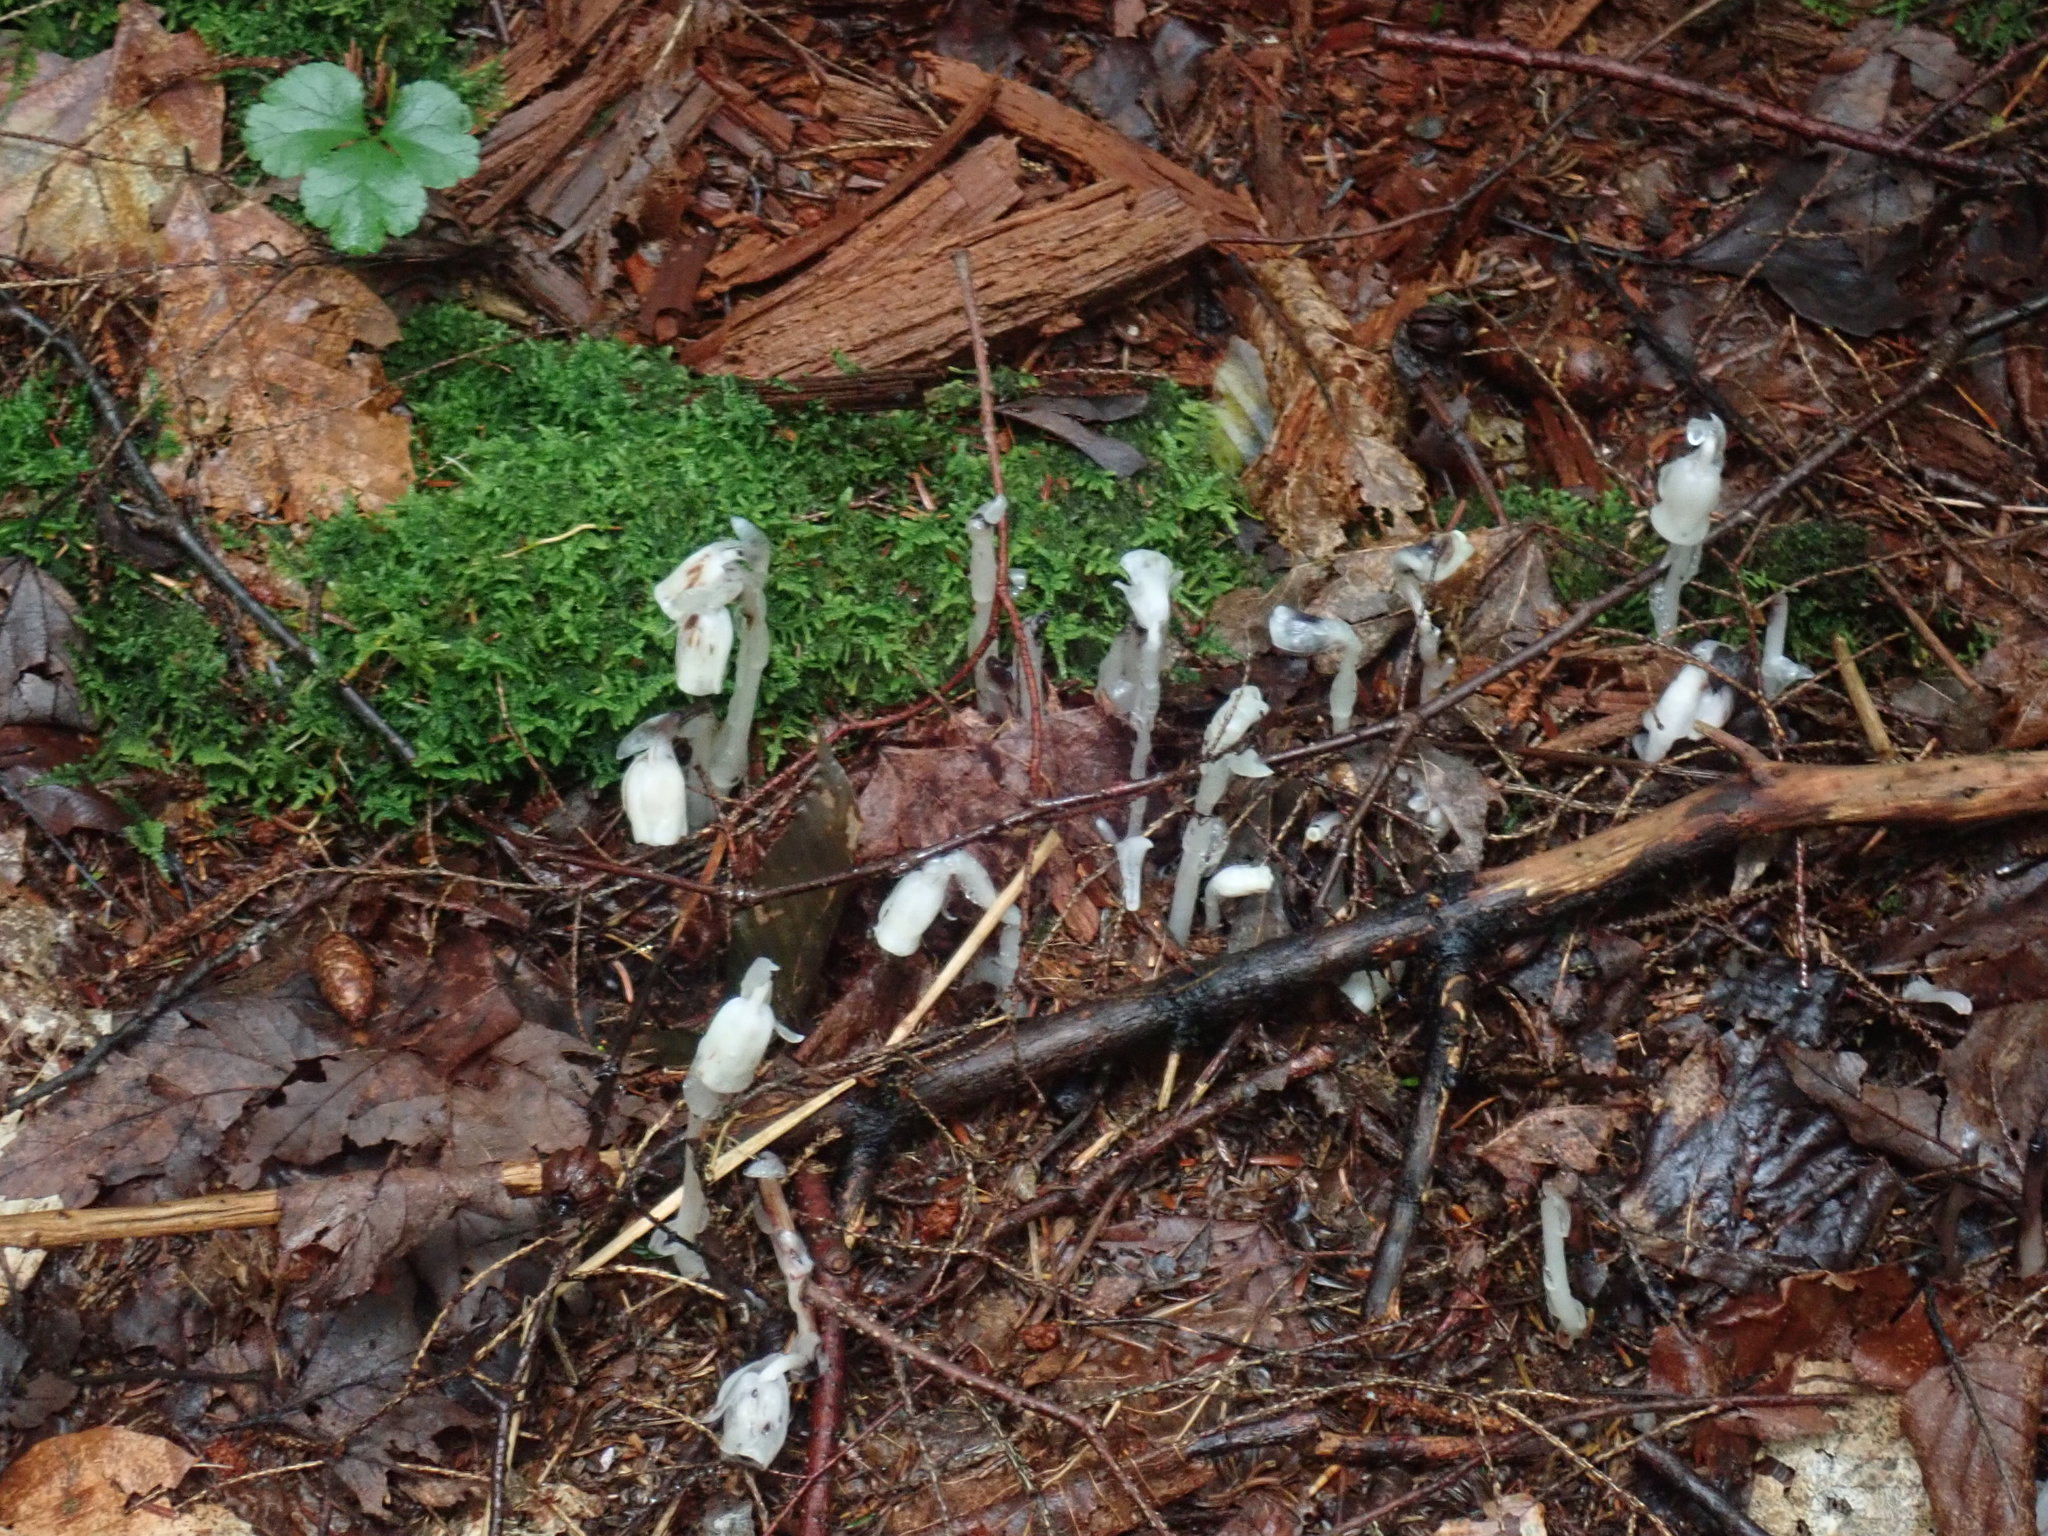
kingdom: Plantae
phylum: Tracheophyta
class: Magnoliopsida
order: Ericales
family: Ericaceae
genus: Monotropa
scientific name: Monotropa uniflora
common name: Convulsion root
